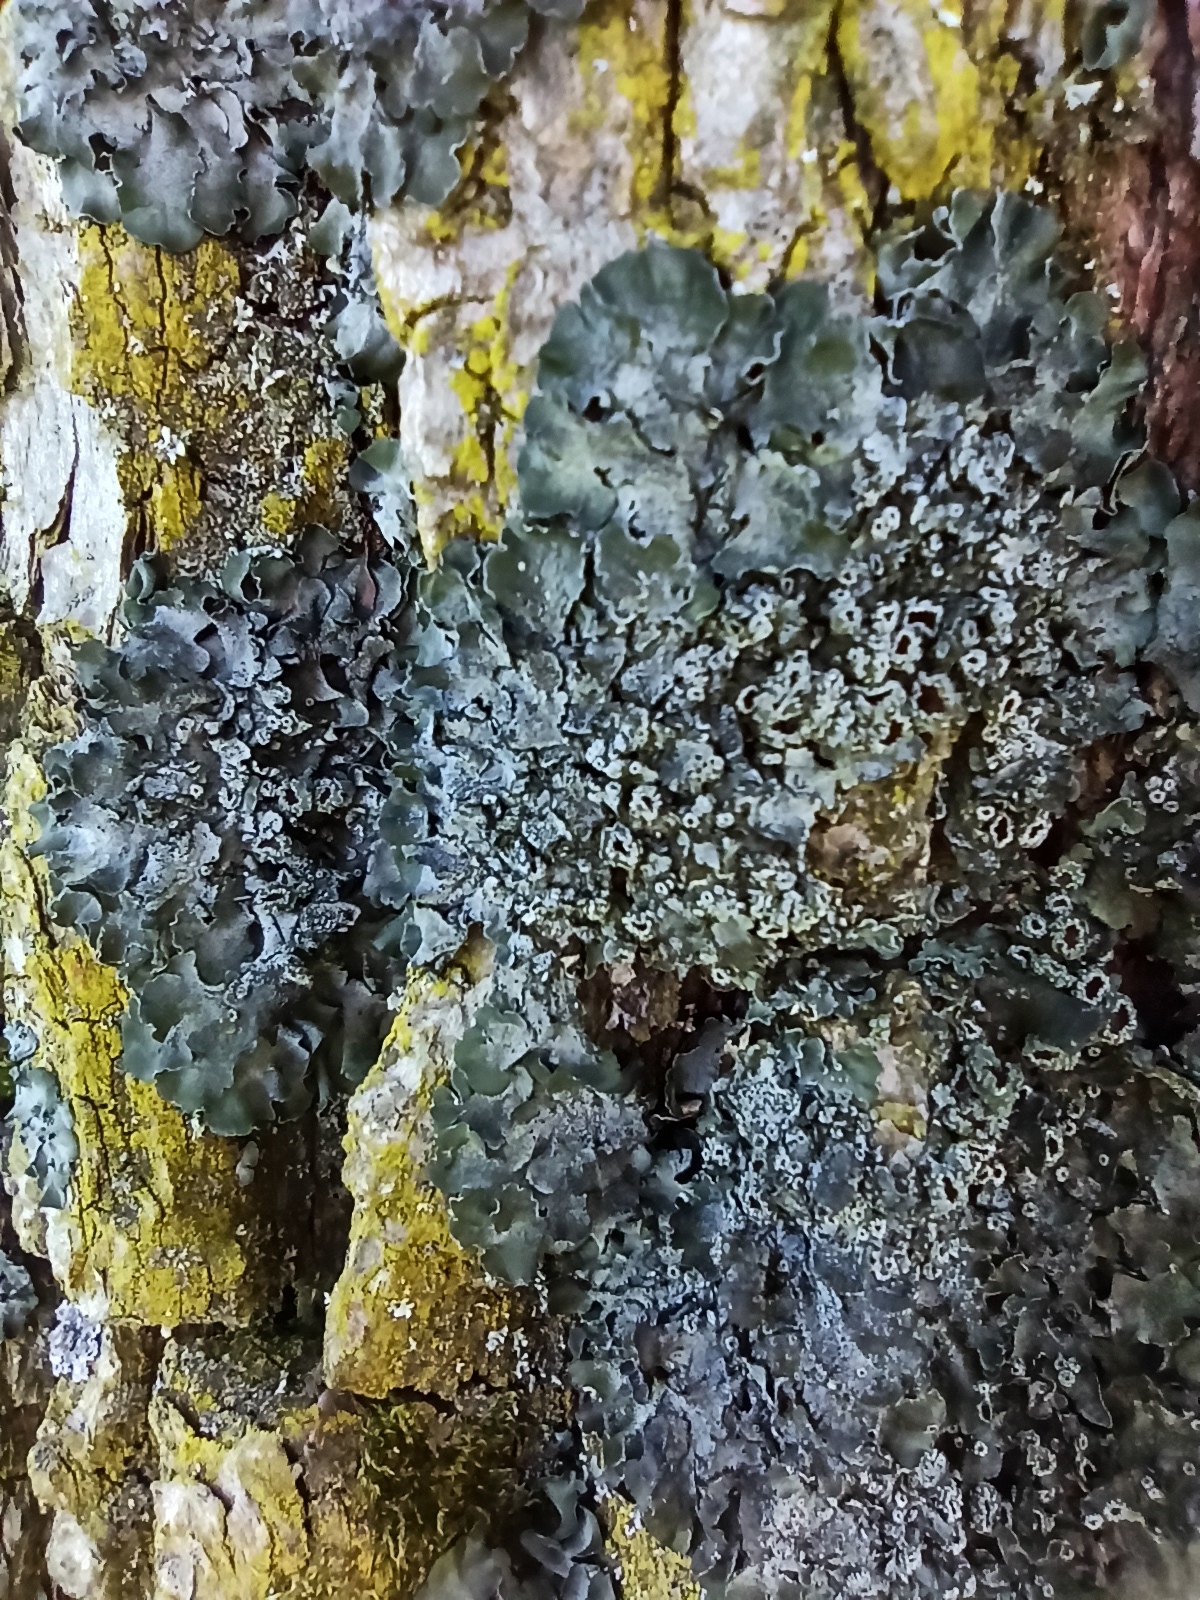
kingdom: Fungi
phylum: Ascomycota
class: Lecanoromycetes
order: Lecanorales
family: Parmeliaceae
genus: Pleurosticta
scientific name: Pleurosticta acetabulum
